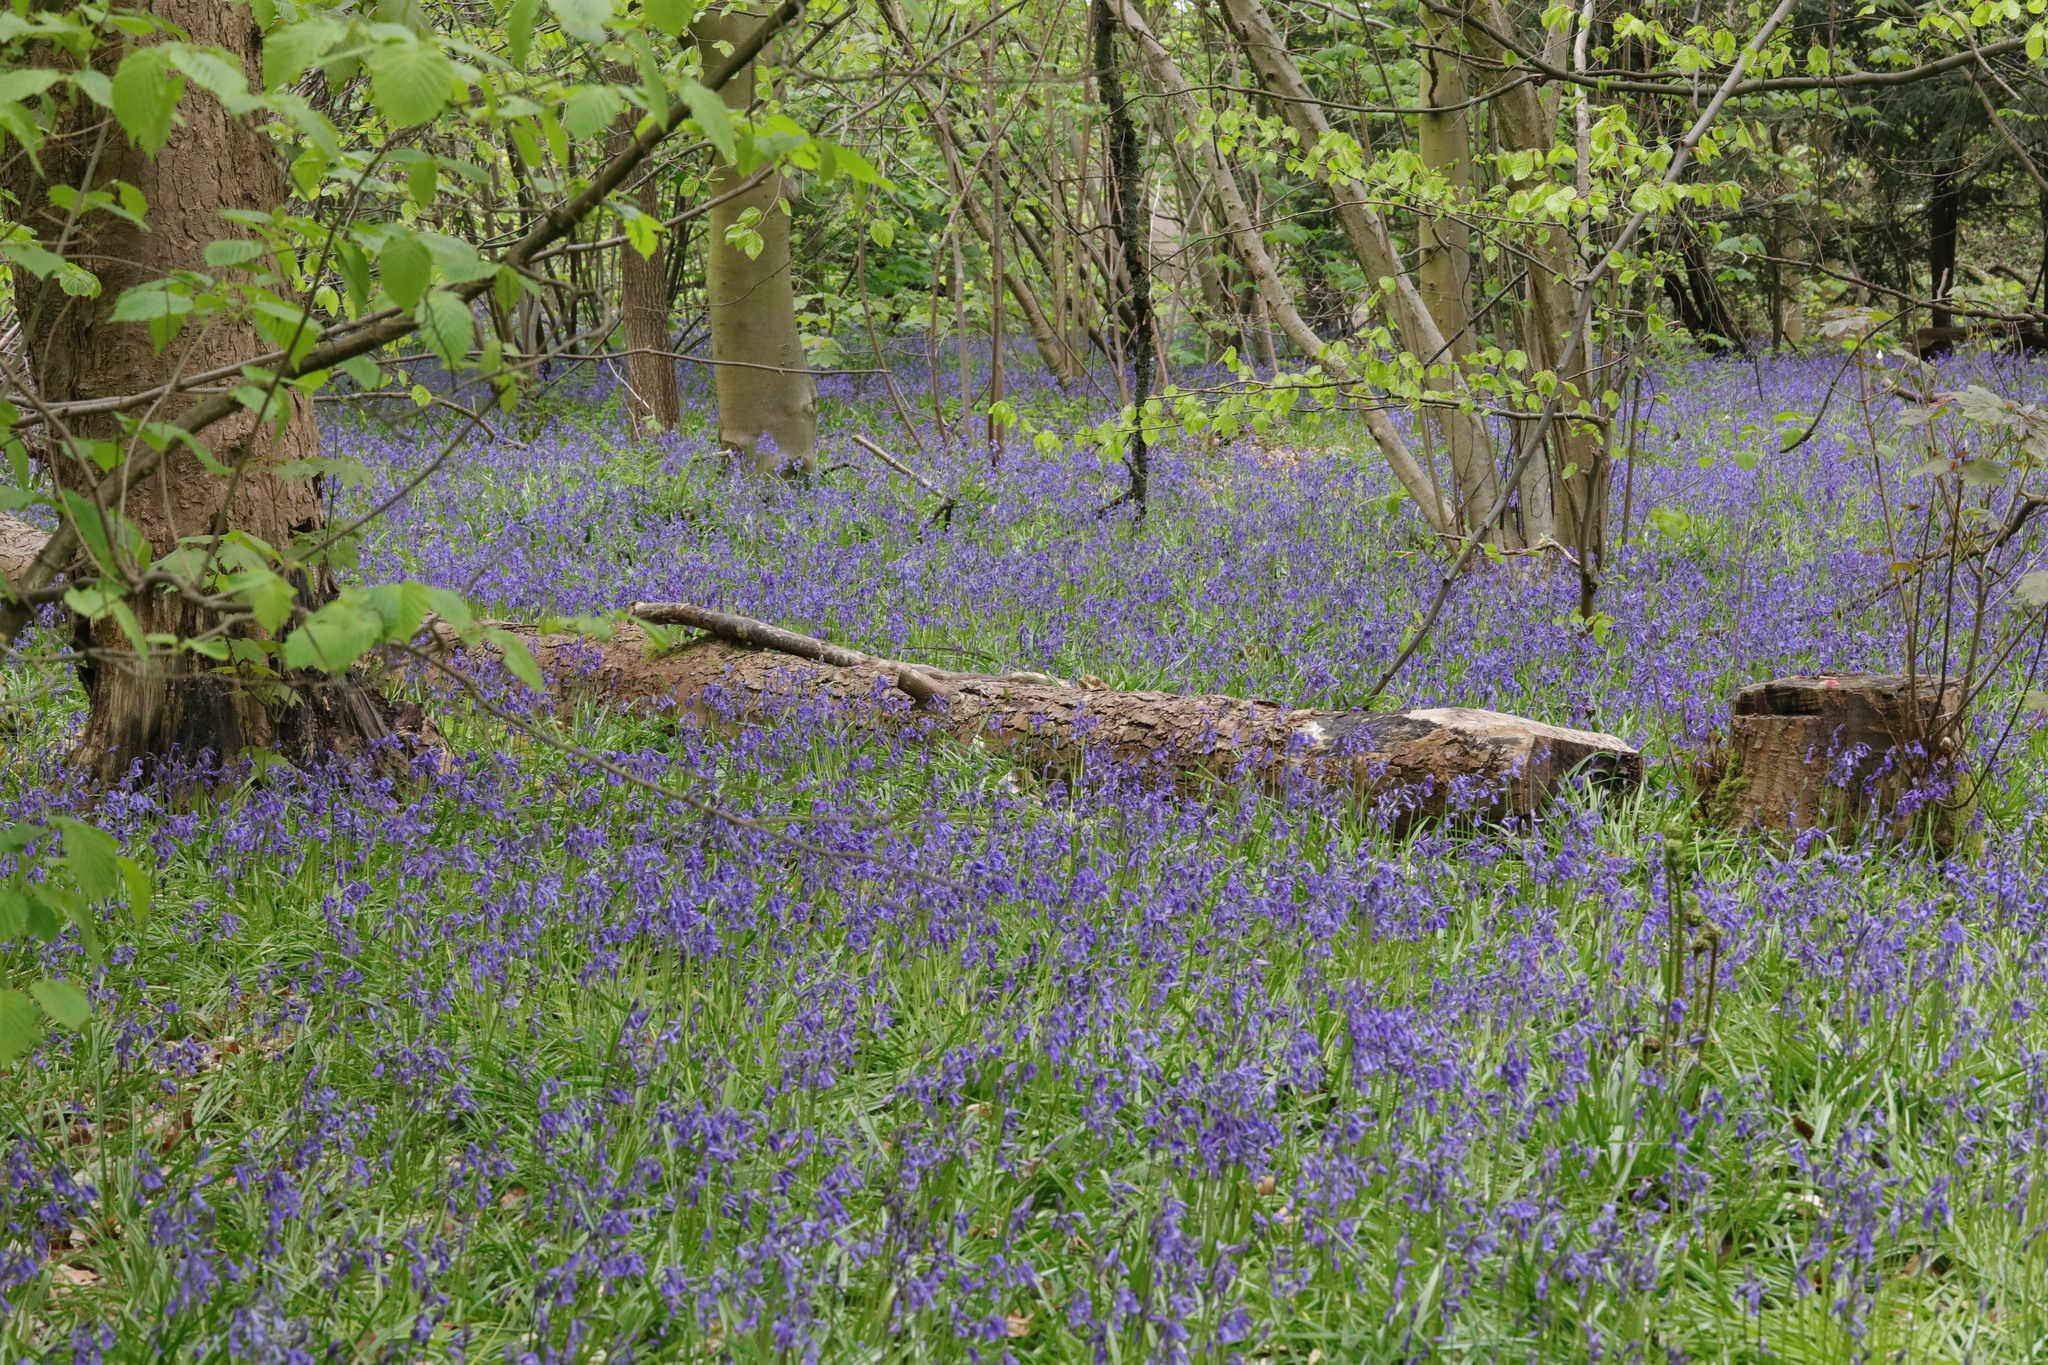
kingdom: Plantae
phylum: Tracheophyta
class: Liliopsida
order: Asparagales
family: Asparagaceae
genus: Hyacinthoides
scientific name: Hyacinthoides non-scripta
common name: Bluebell
